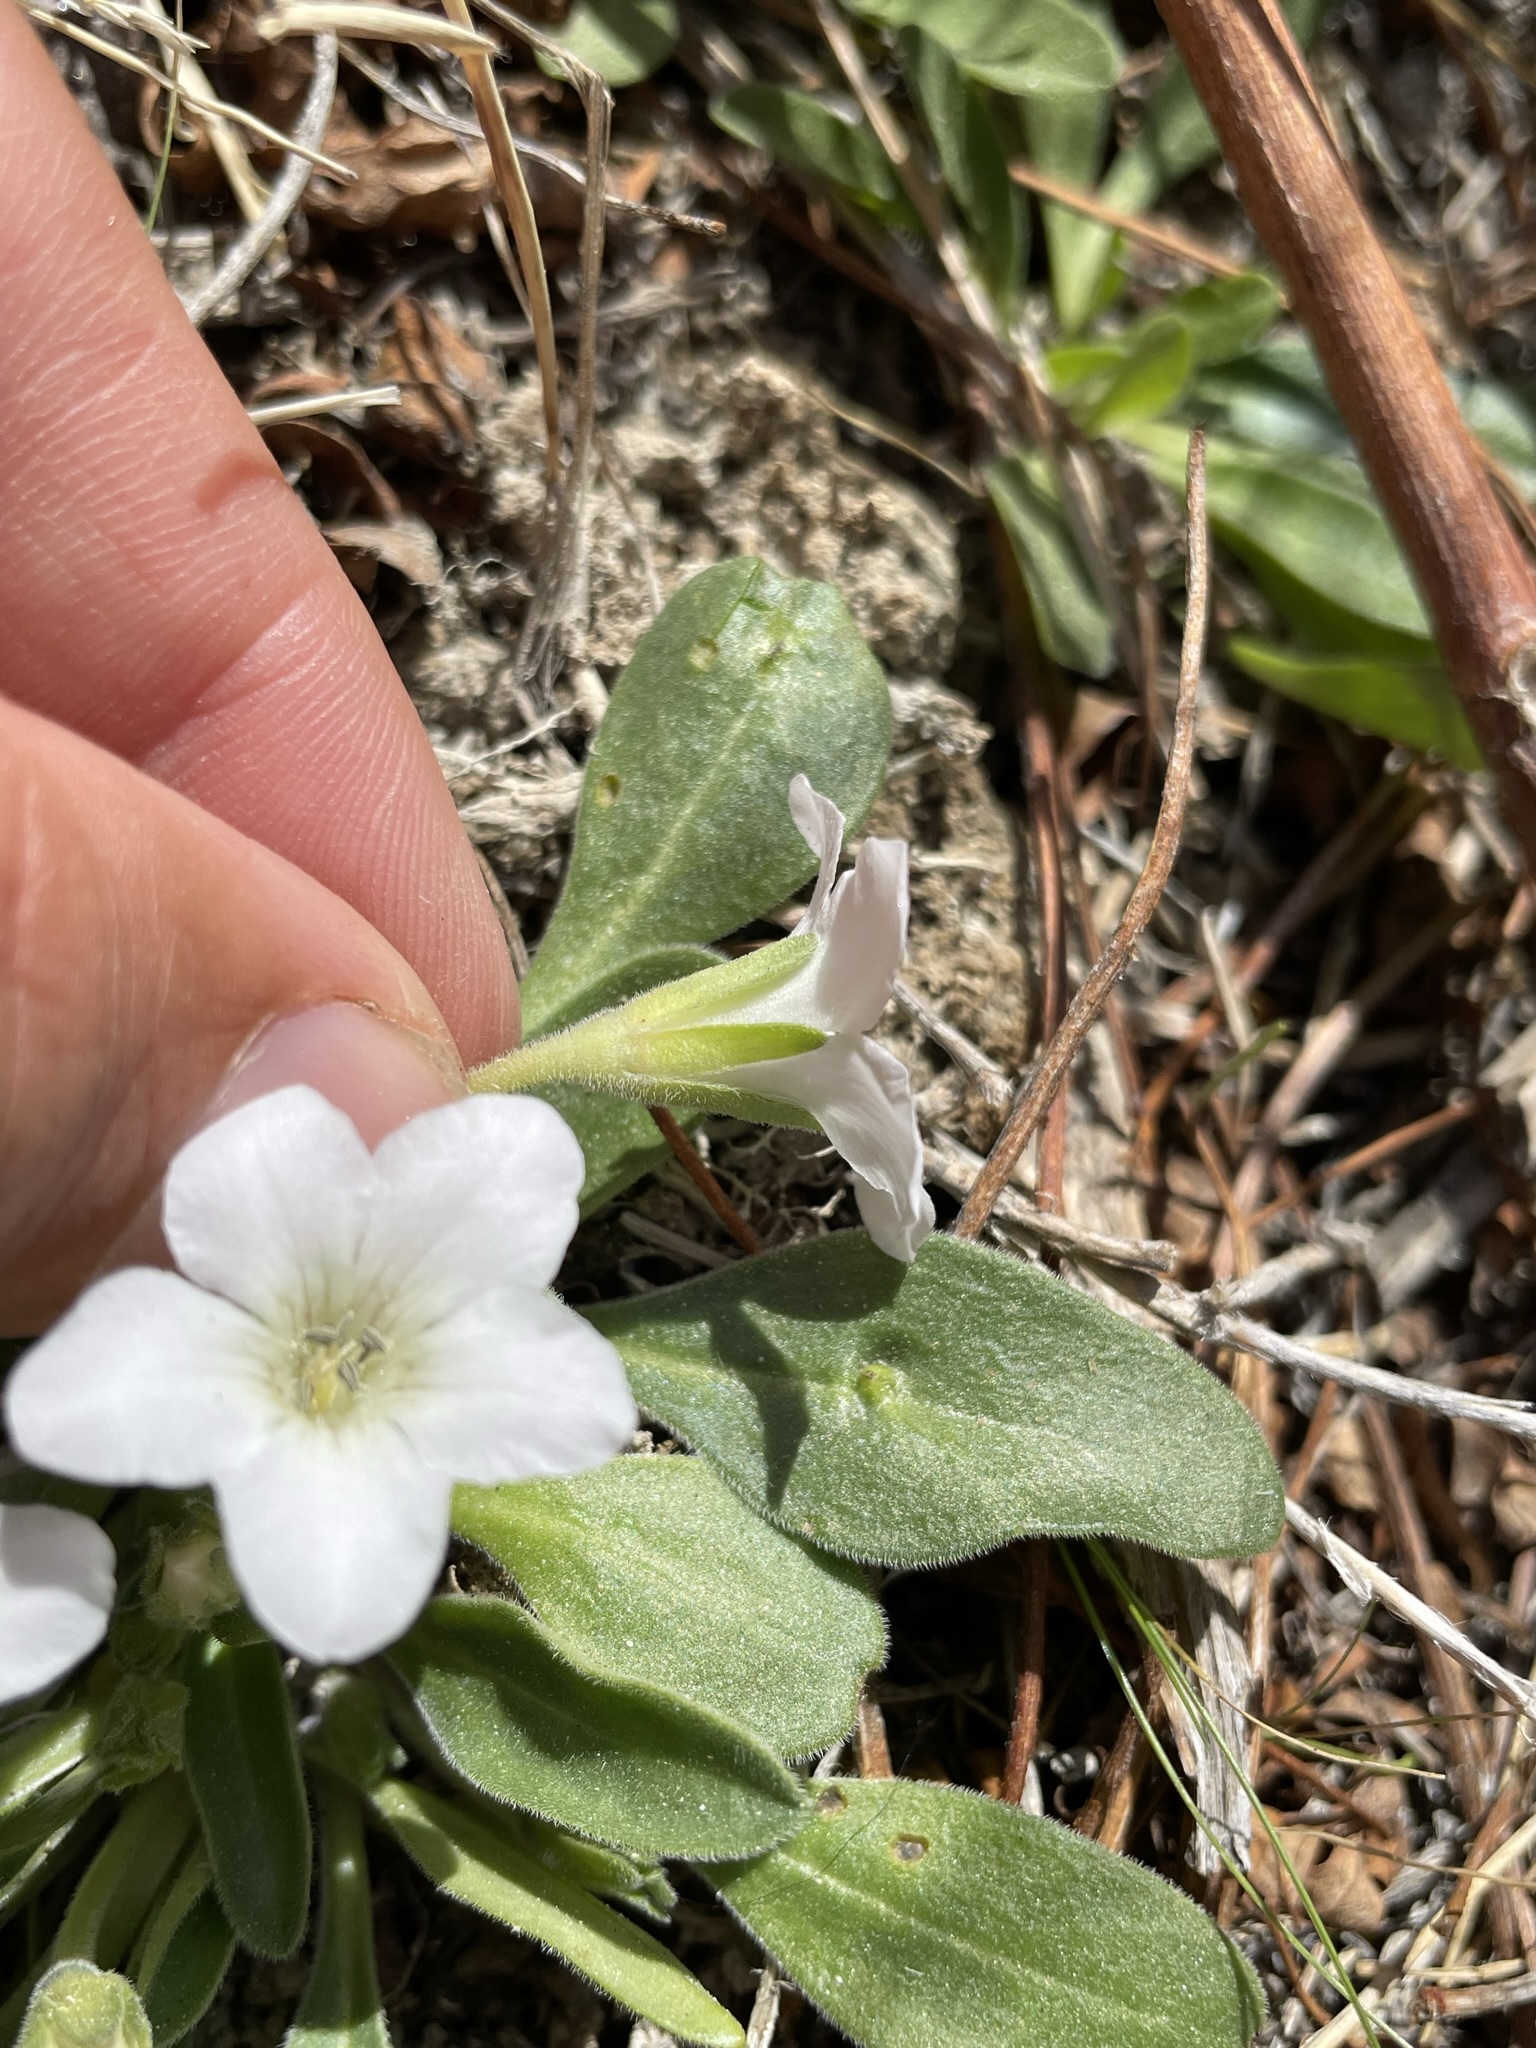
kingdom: Plantae
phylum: Tracheophyta
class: Magnoliopsida
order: Boraginales
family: Hydrophyllaceae
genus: Hesperochiron
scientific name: Hesperochiron californicus
